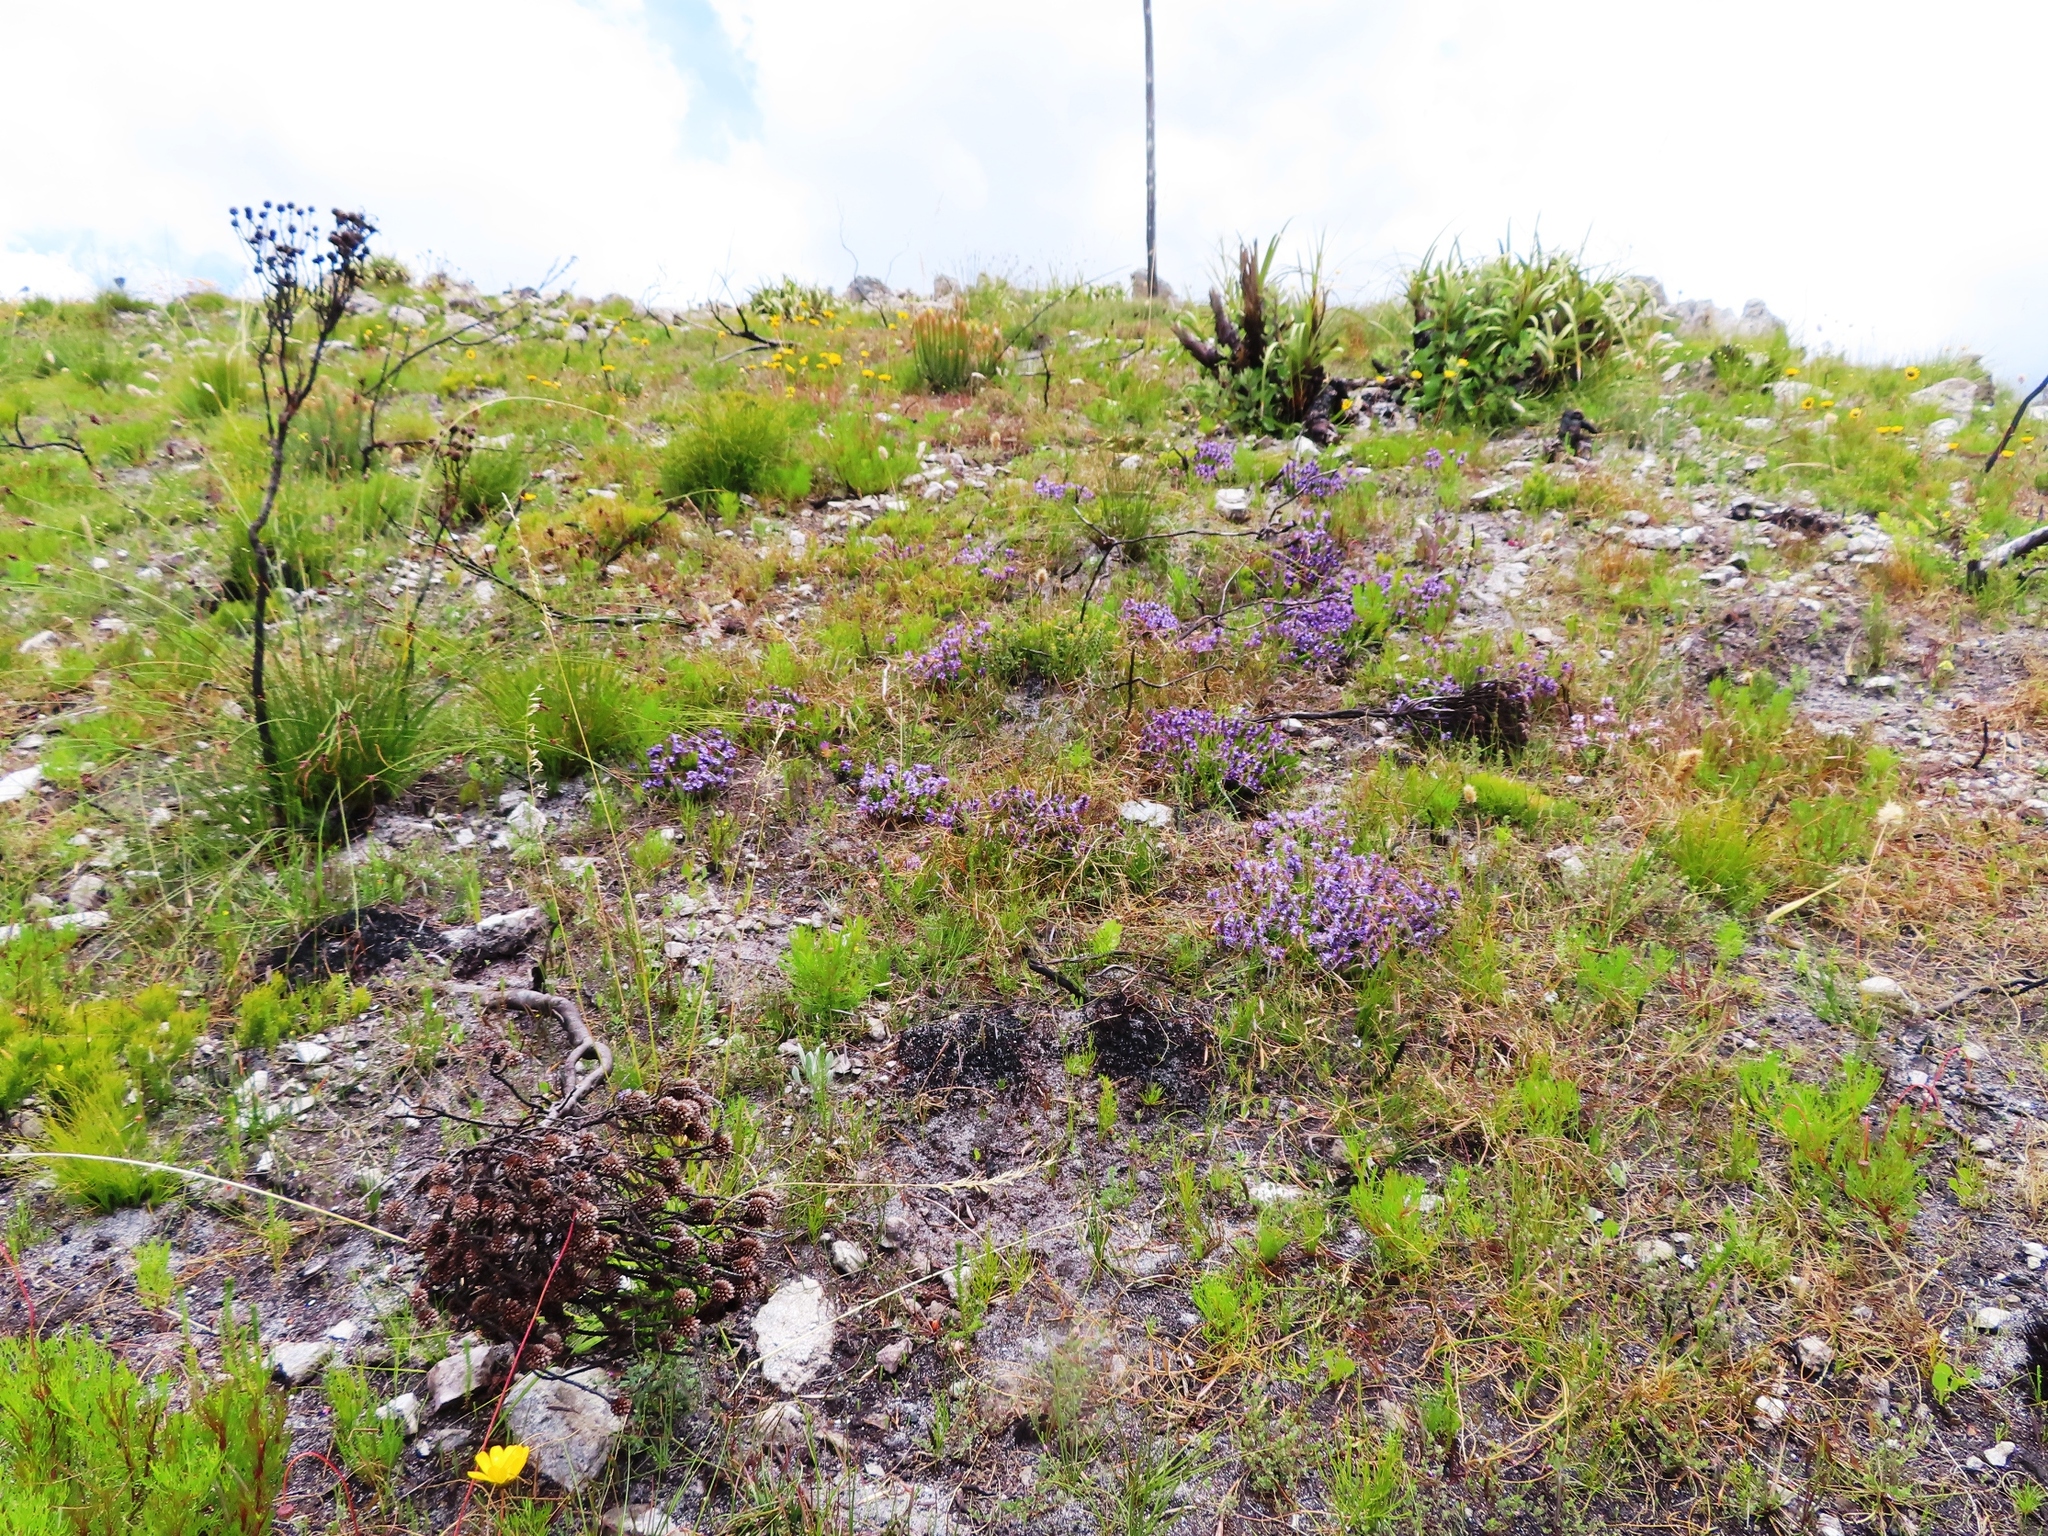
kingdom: Plantae
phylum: Tracheophyta
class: Magnoliopsida
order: Asterales
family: Campanulaceae
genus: Merciera
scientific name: Merciera azurea
